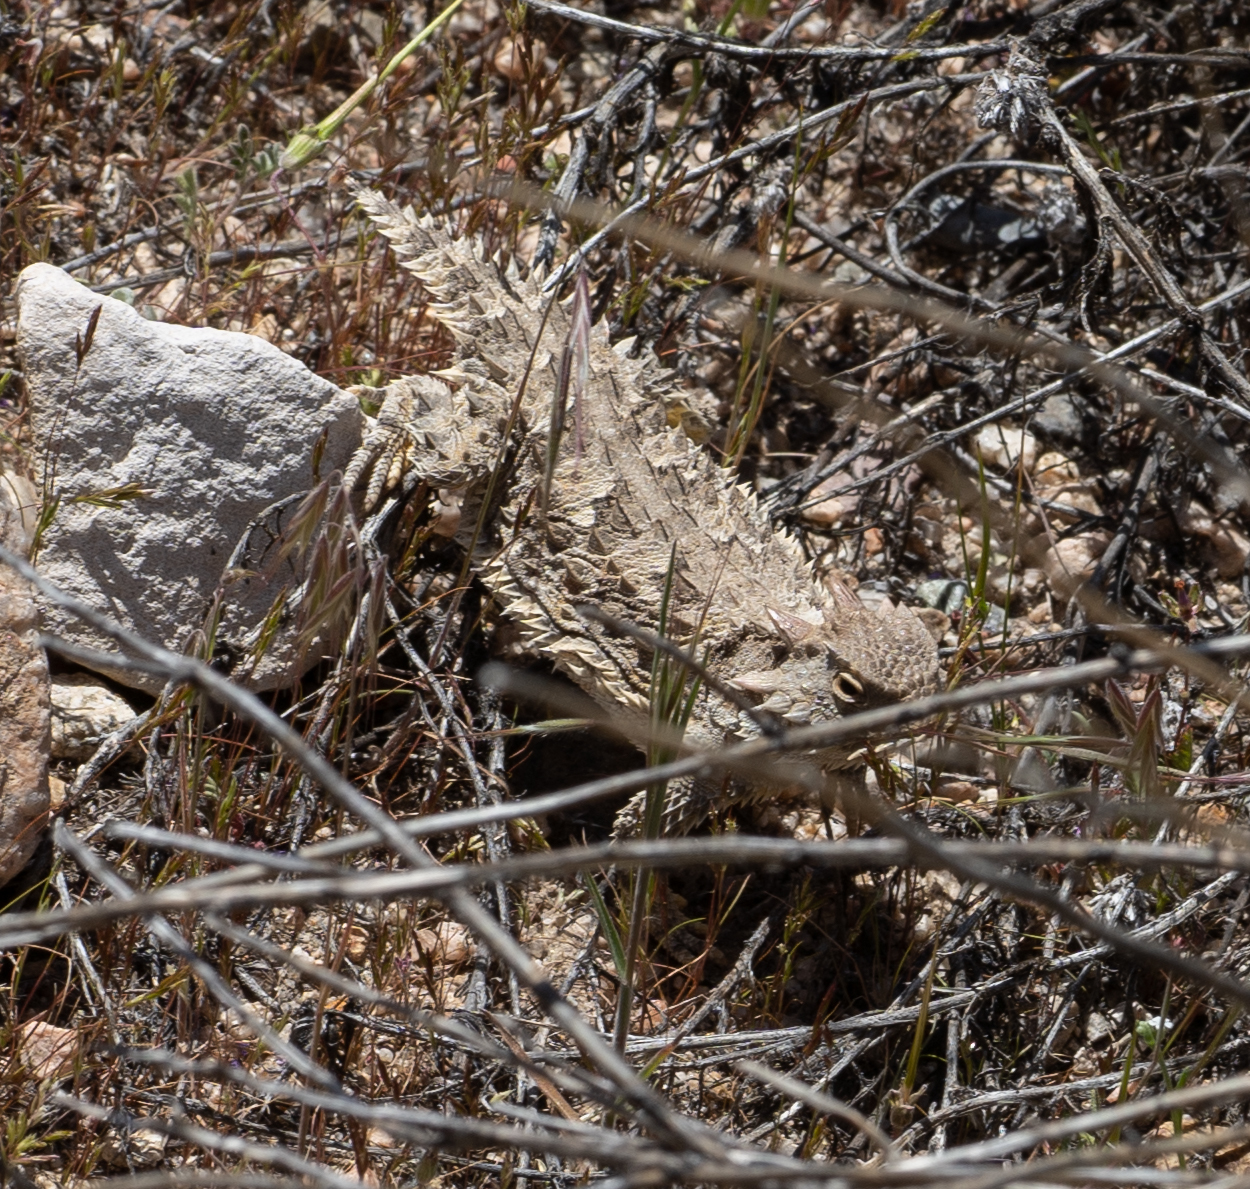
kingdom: Animalia
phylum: Chordata
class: Squamata
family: Phrynosomatidae
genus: Phrynosoma
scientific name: Phrynosoma blainvillii
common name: San diego horned lizard
